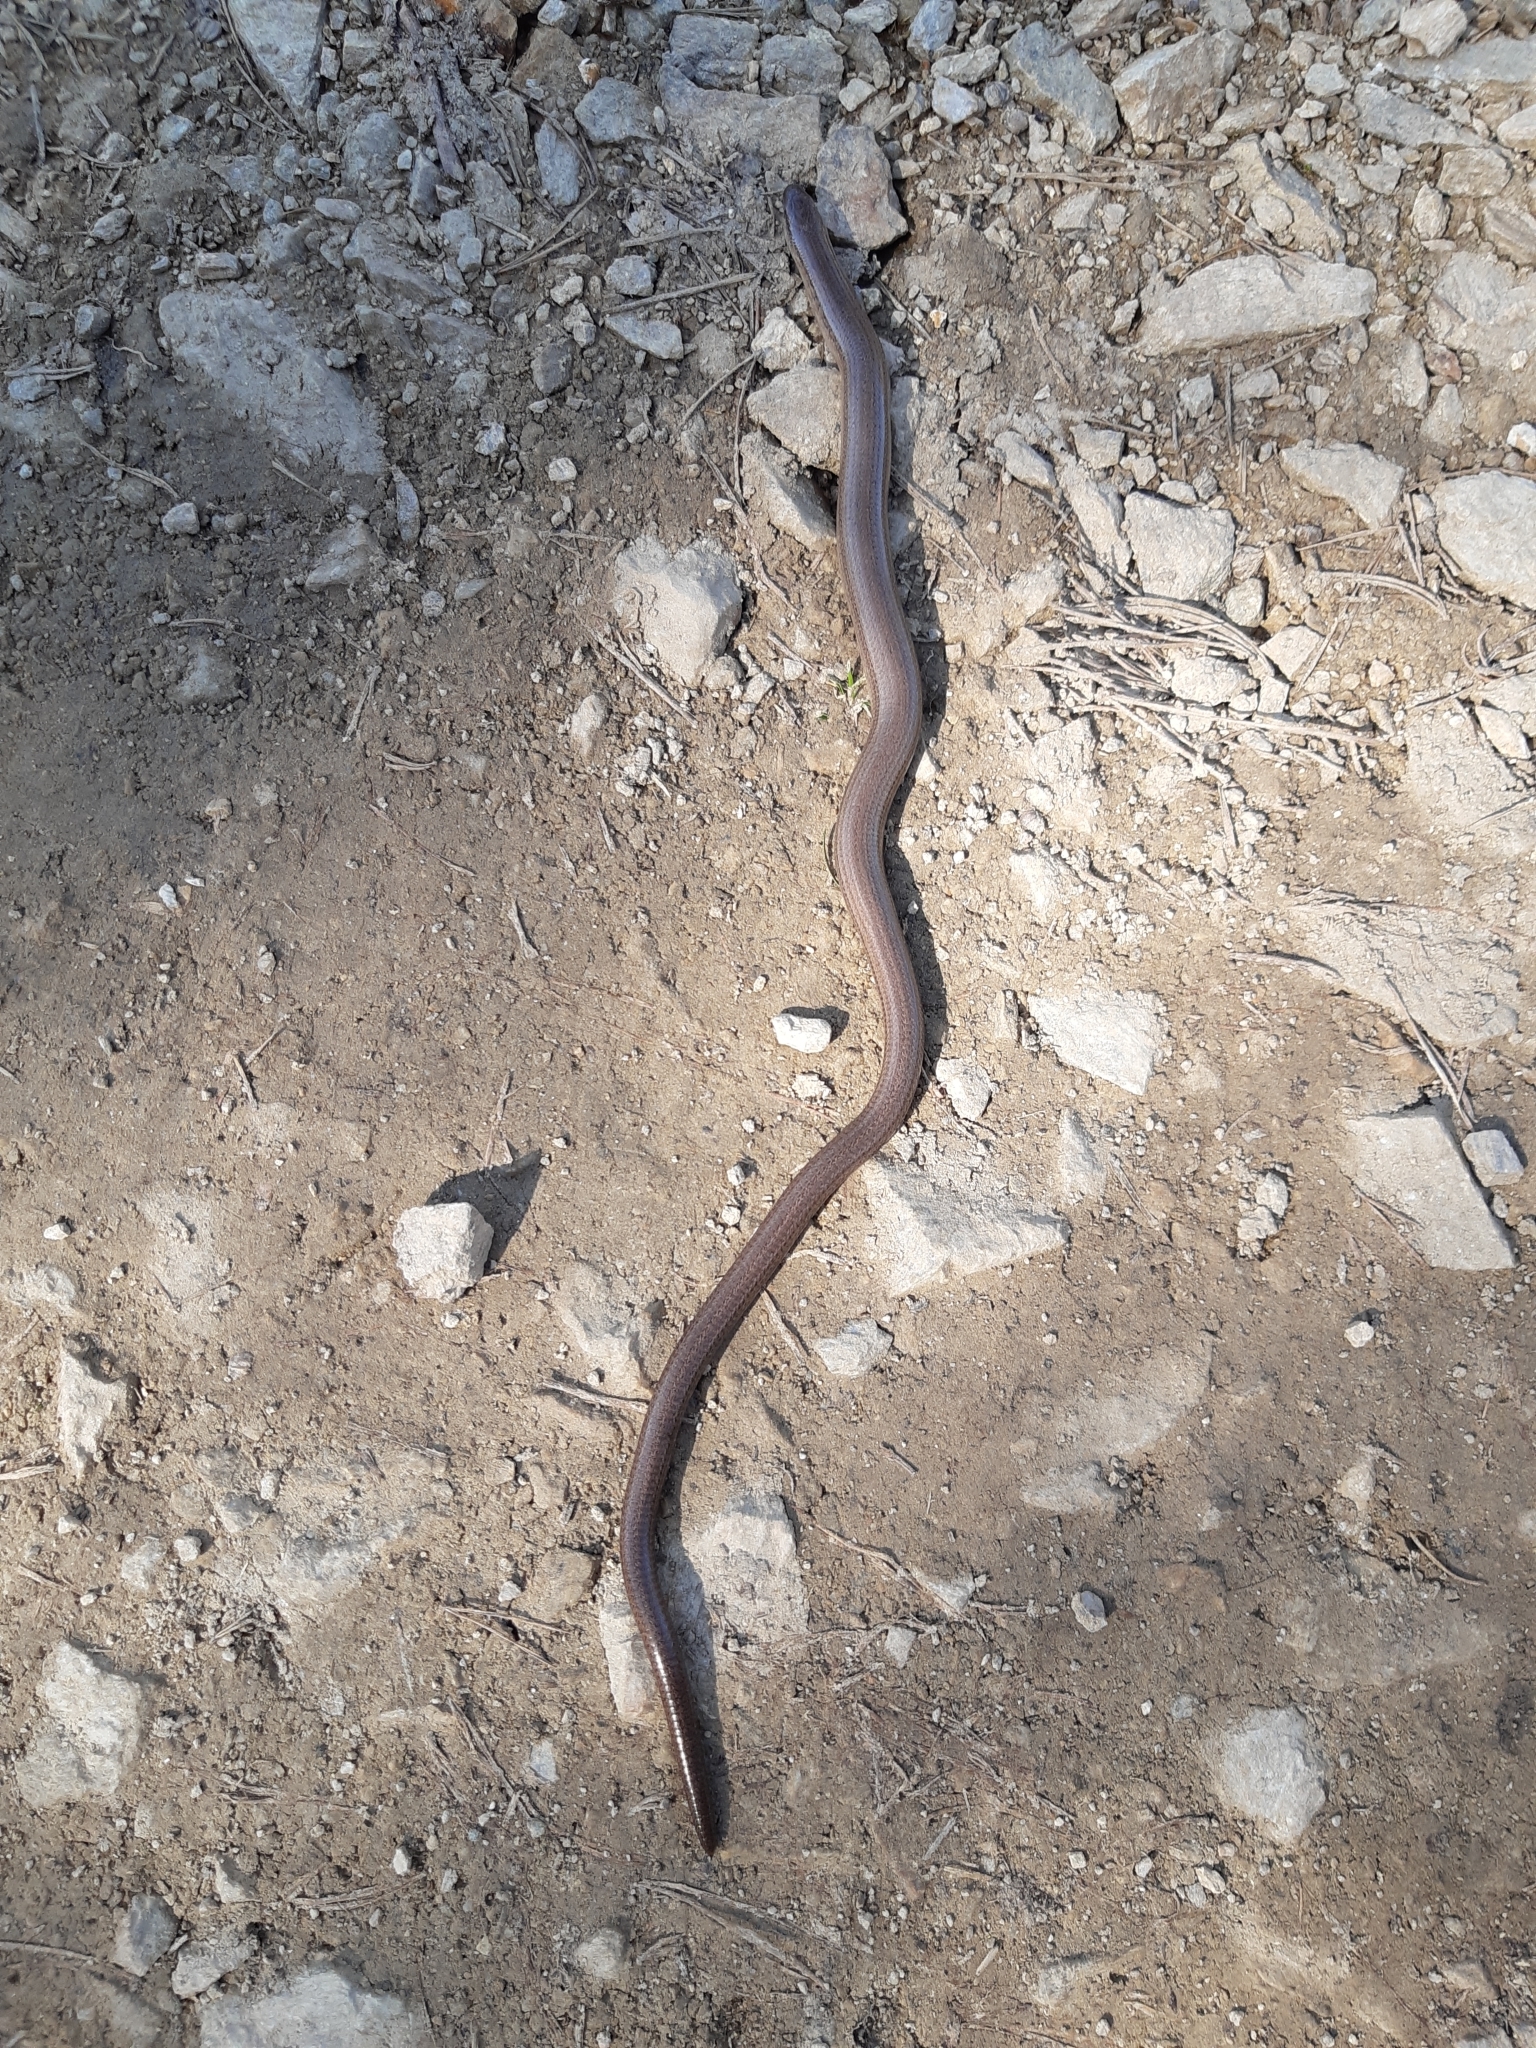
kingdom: Animalia
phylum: Chordata
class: Squamata
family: Anguidae
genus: Anguis
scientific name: Anguis fragilis
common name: Slow worm
